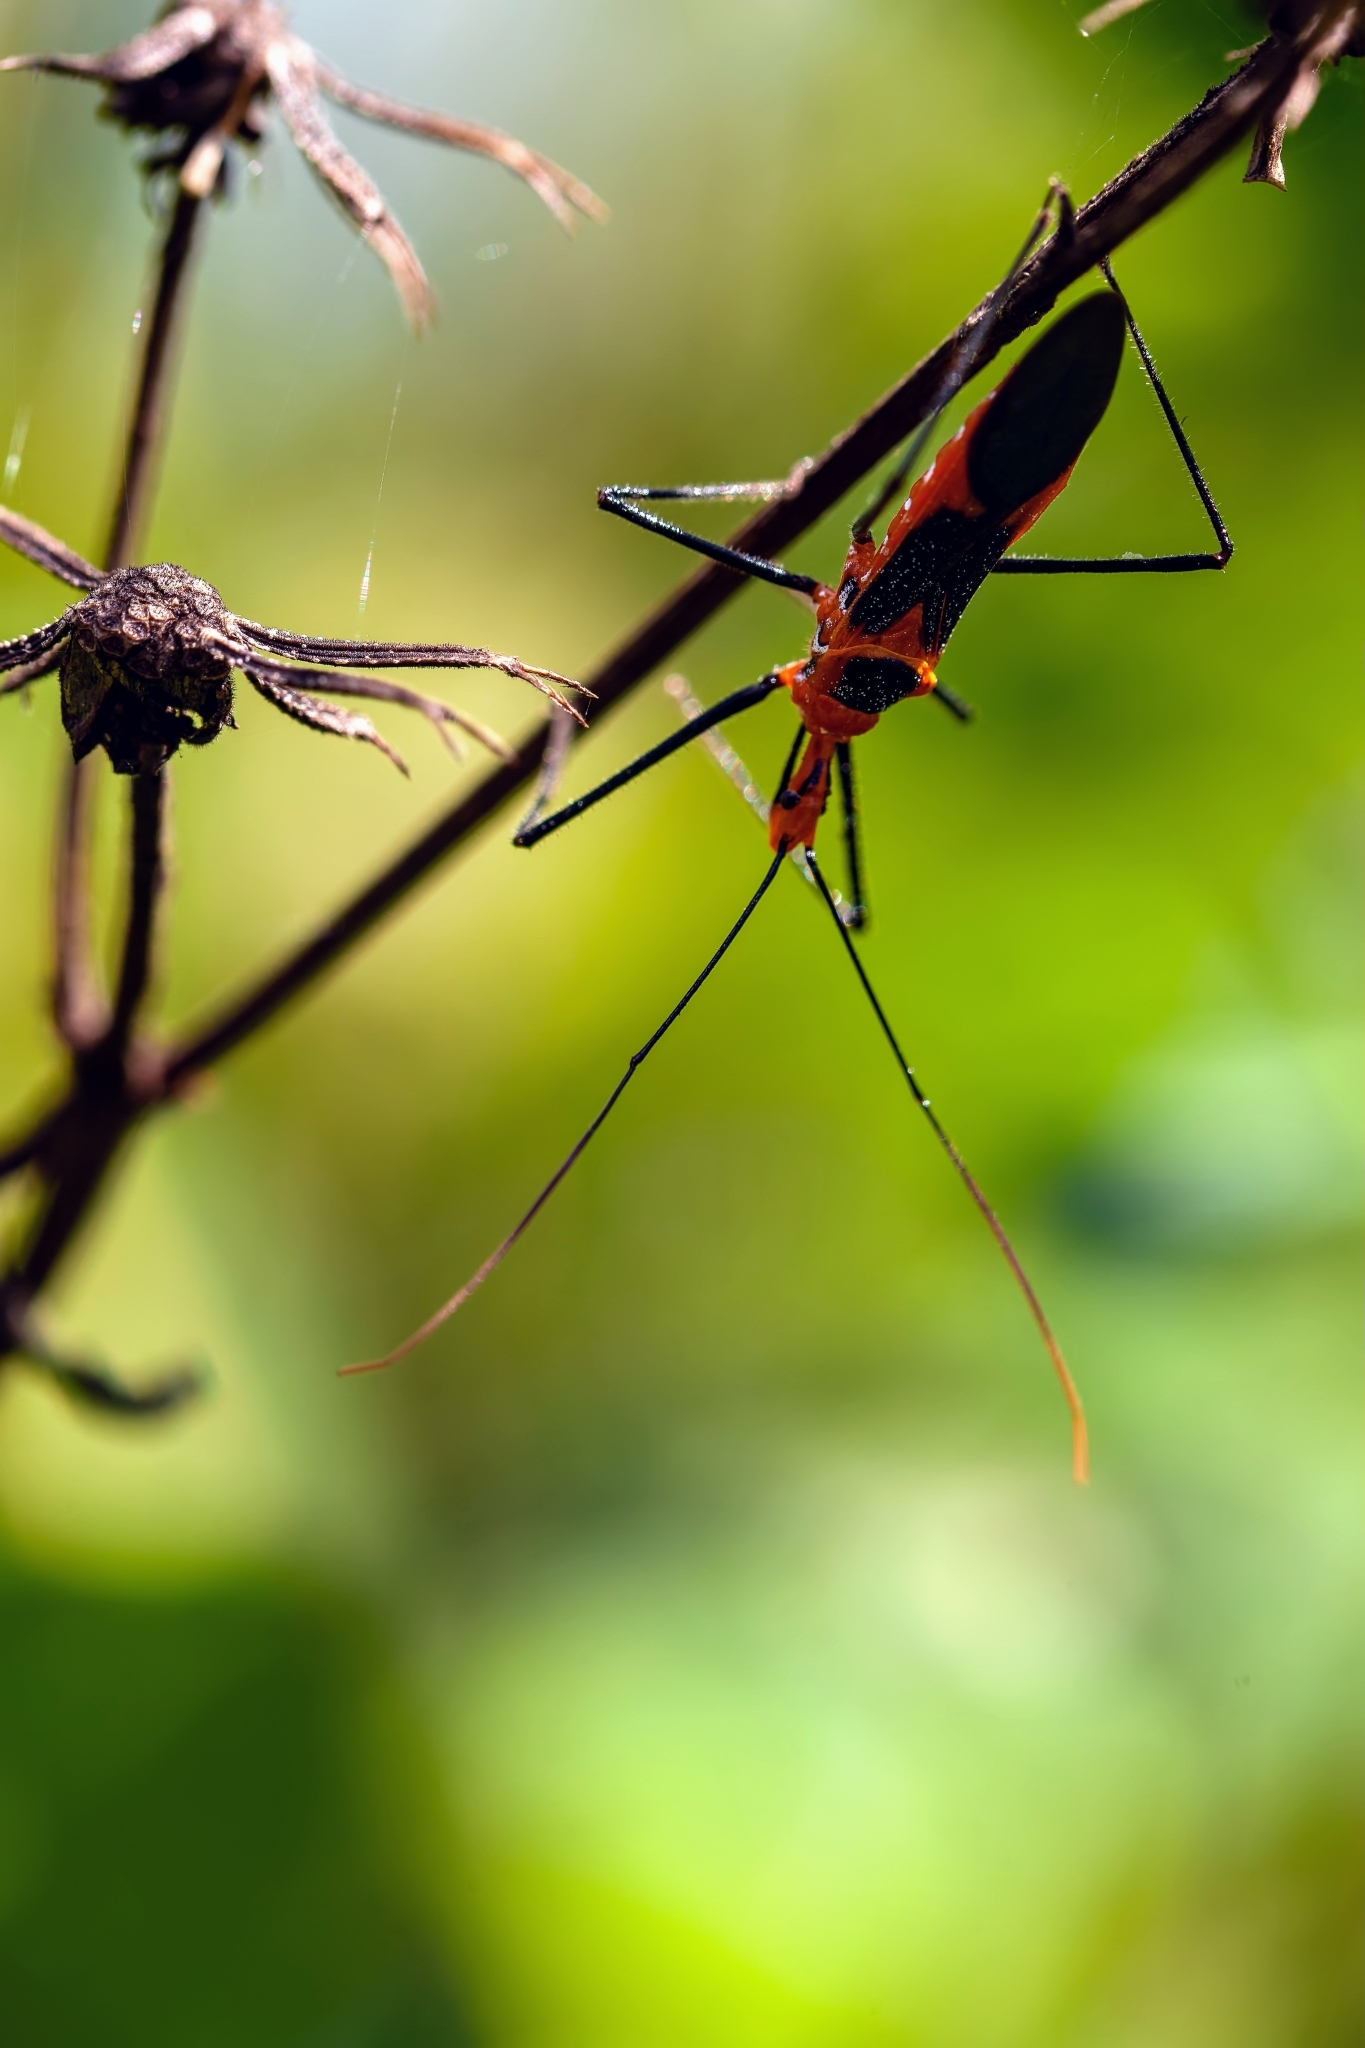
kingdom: Animalia
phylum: Arthropoda
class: Insecta
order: Hemiptera
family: Reduviidae
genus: Zelus
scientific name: Zelus longipes
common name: Milkweed assassin bug
